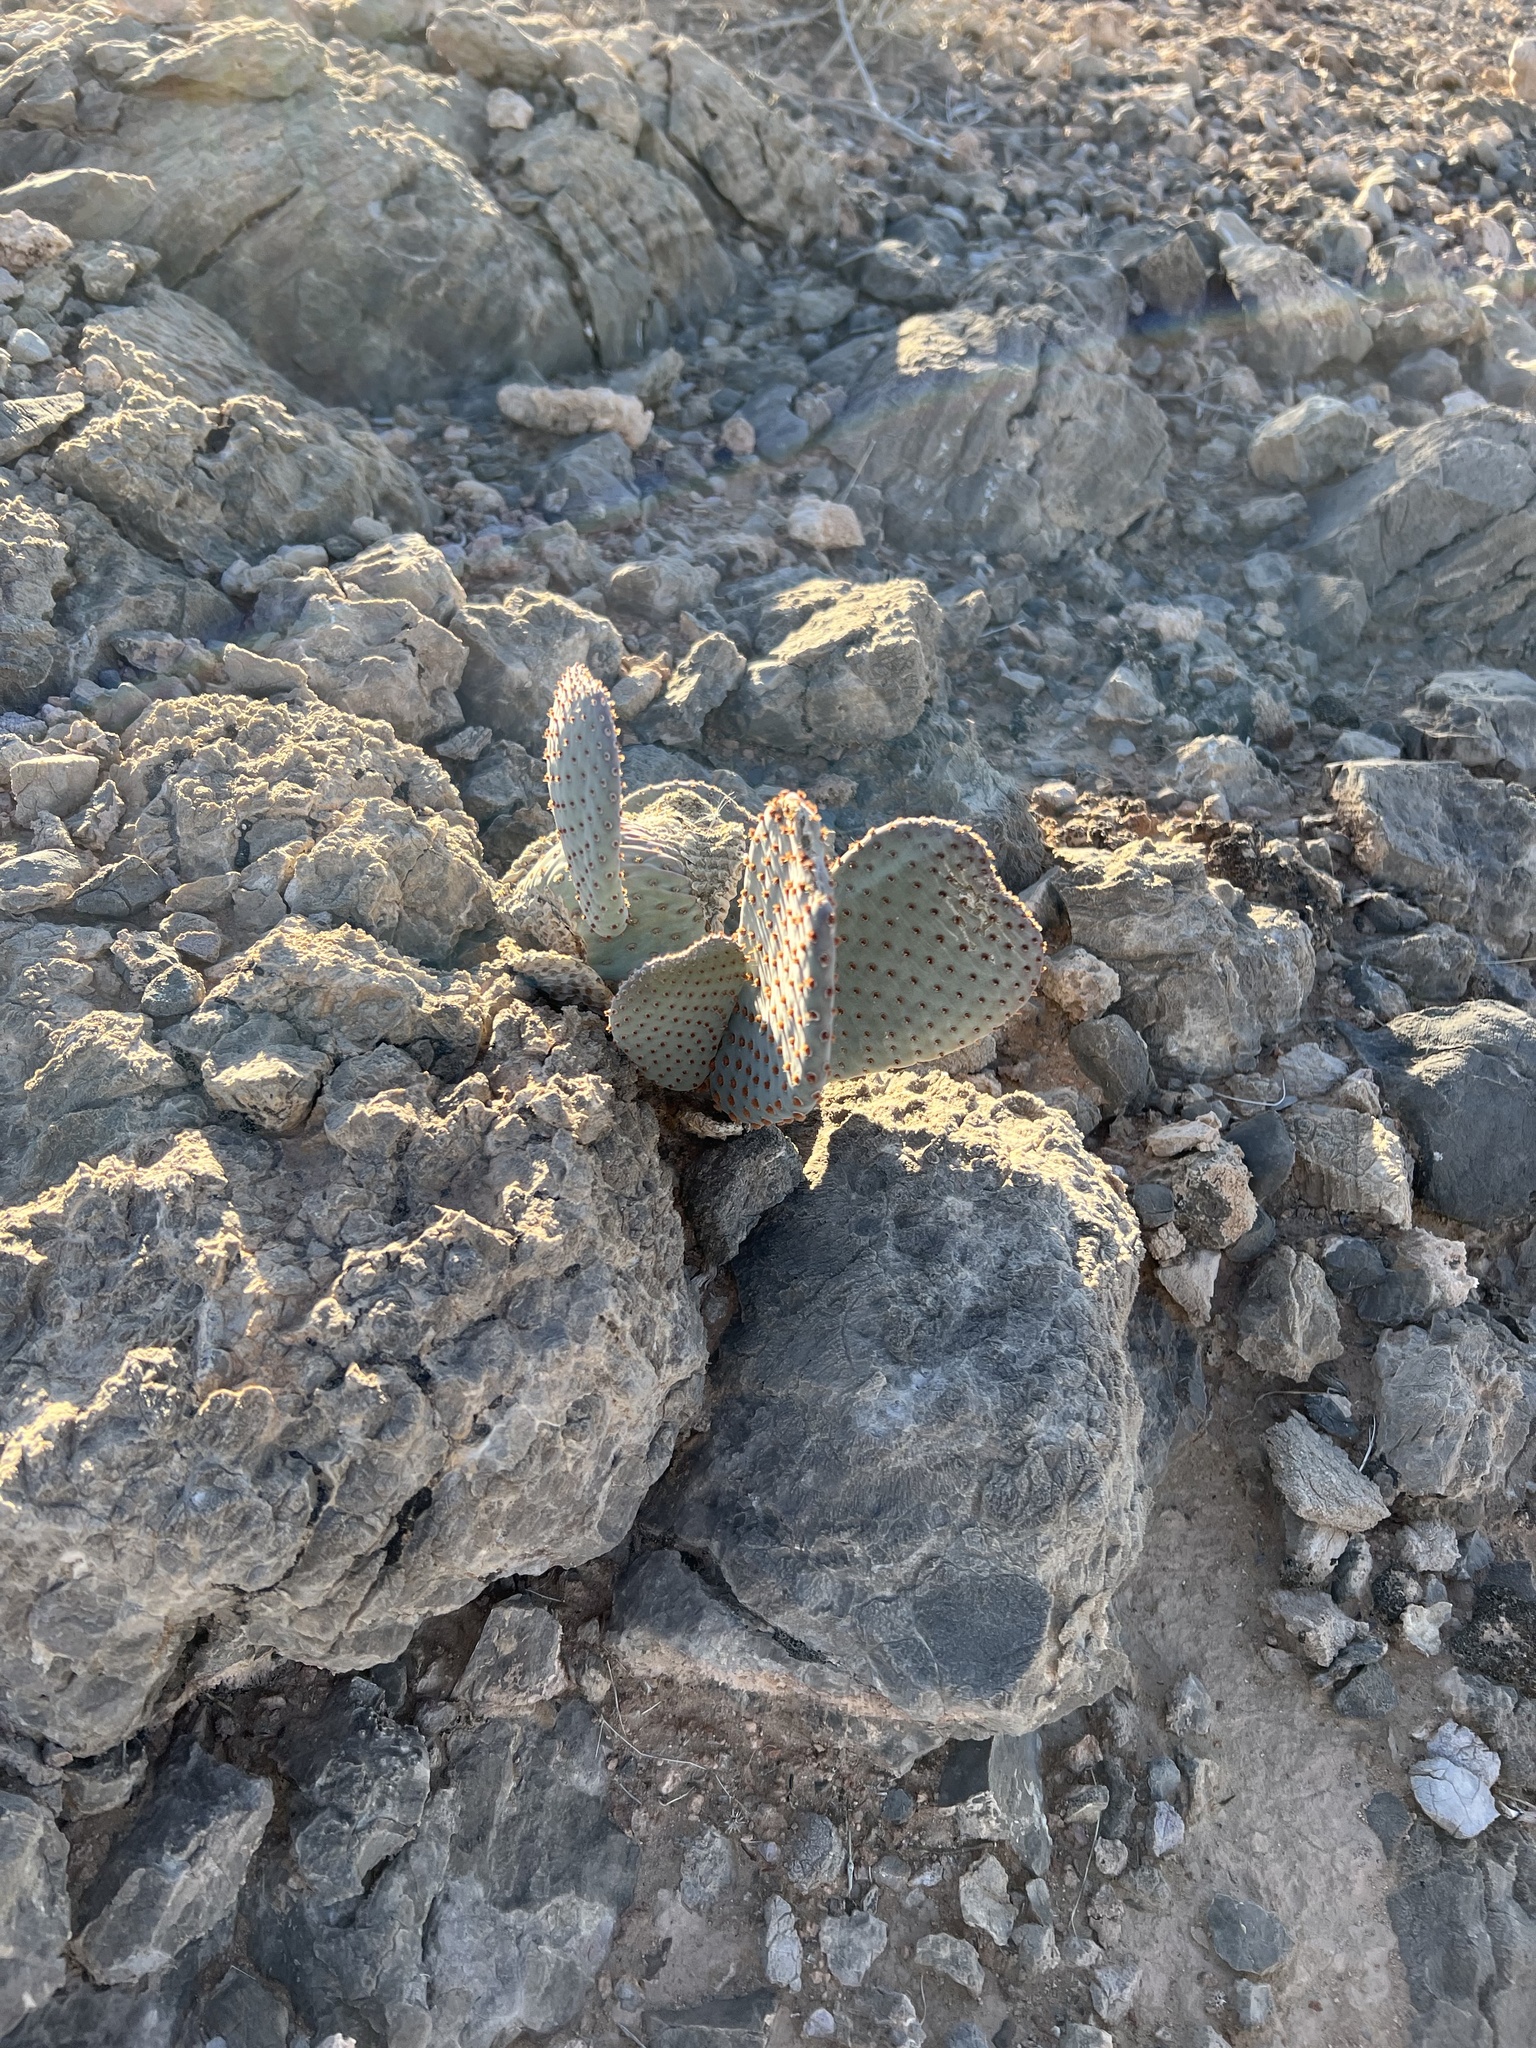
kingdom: Plantae
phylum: Tracheophyta
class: Magnoliopsida
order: Caryophyllales
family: Cactaceae
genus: Opuntia
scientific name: Opuntia basilaris
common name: Beavertail prickly-pear
